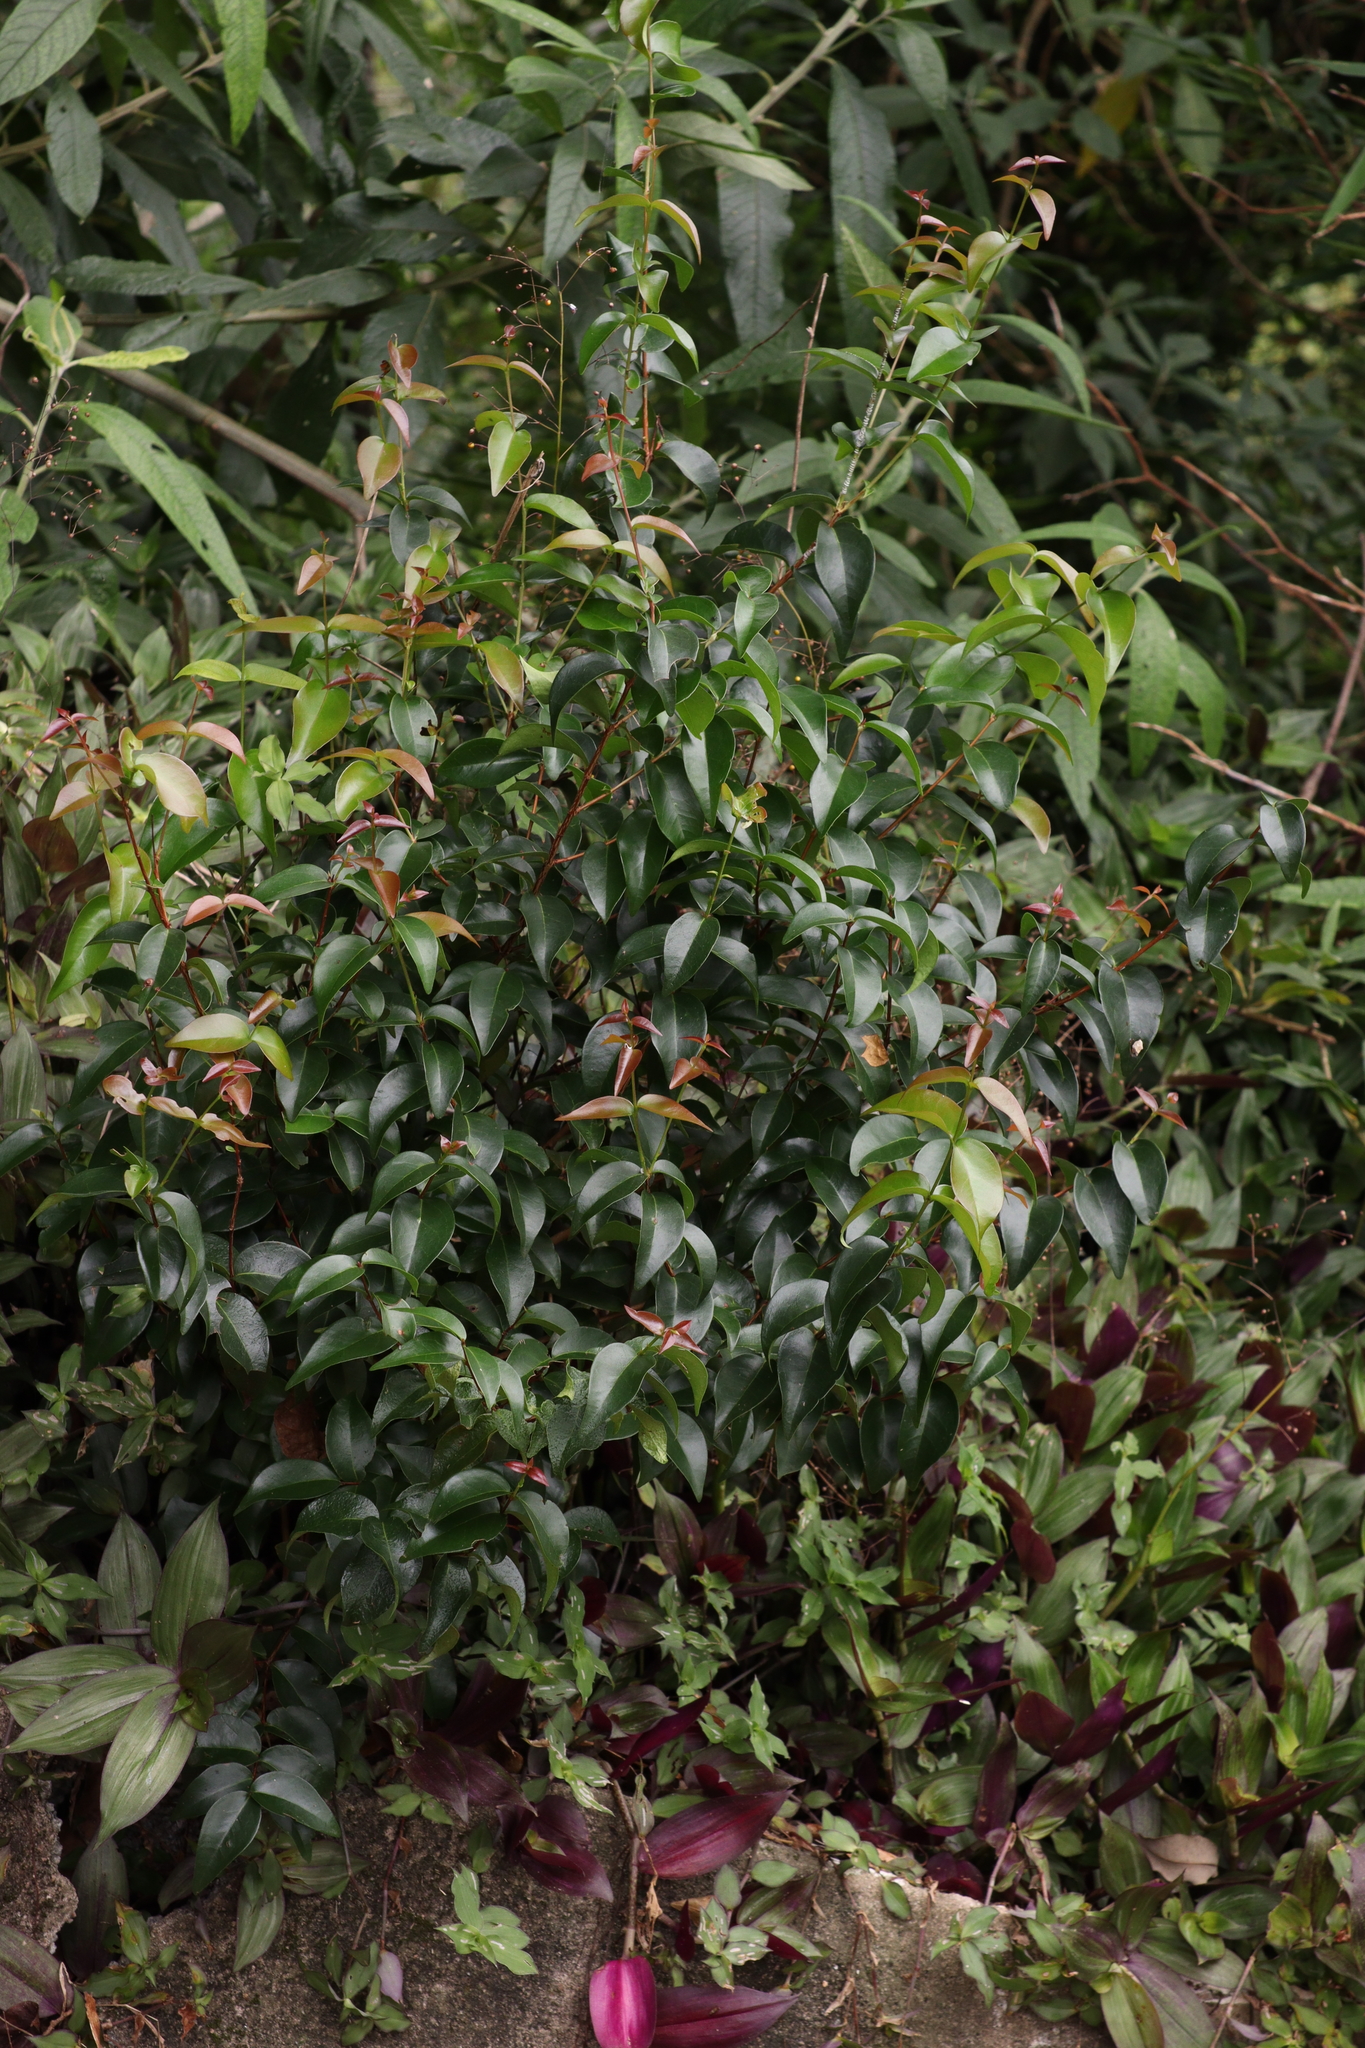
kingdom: Plantae
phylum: Tracheophyta
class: Magnoliopsida
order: Myrtales
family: Myrtaceae
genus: Eugenia
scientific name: Eugenia uniflora
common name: Surinam cherry
